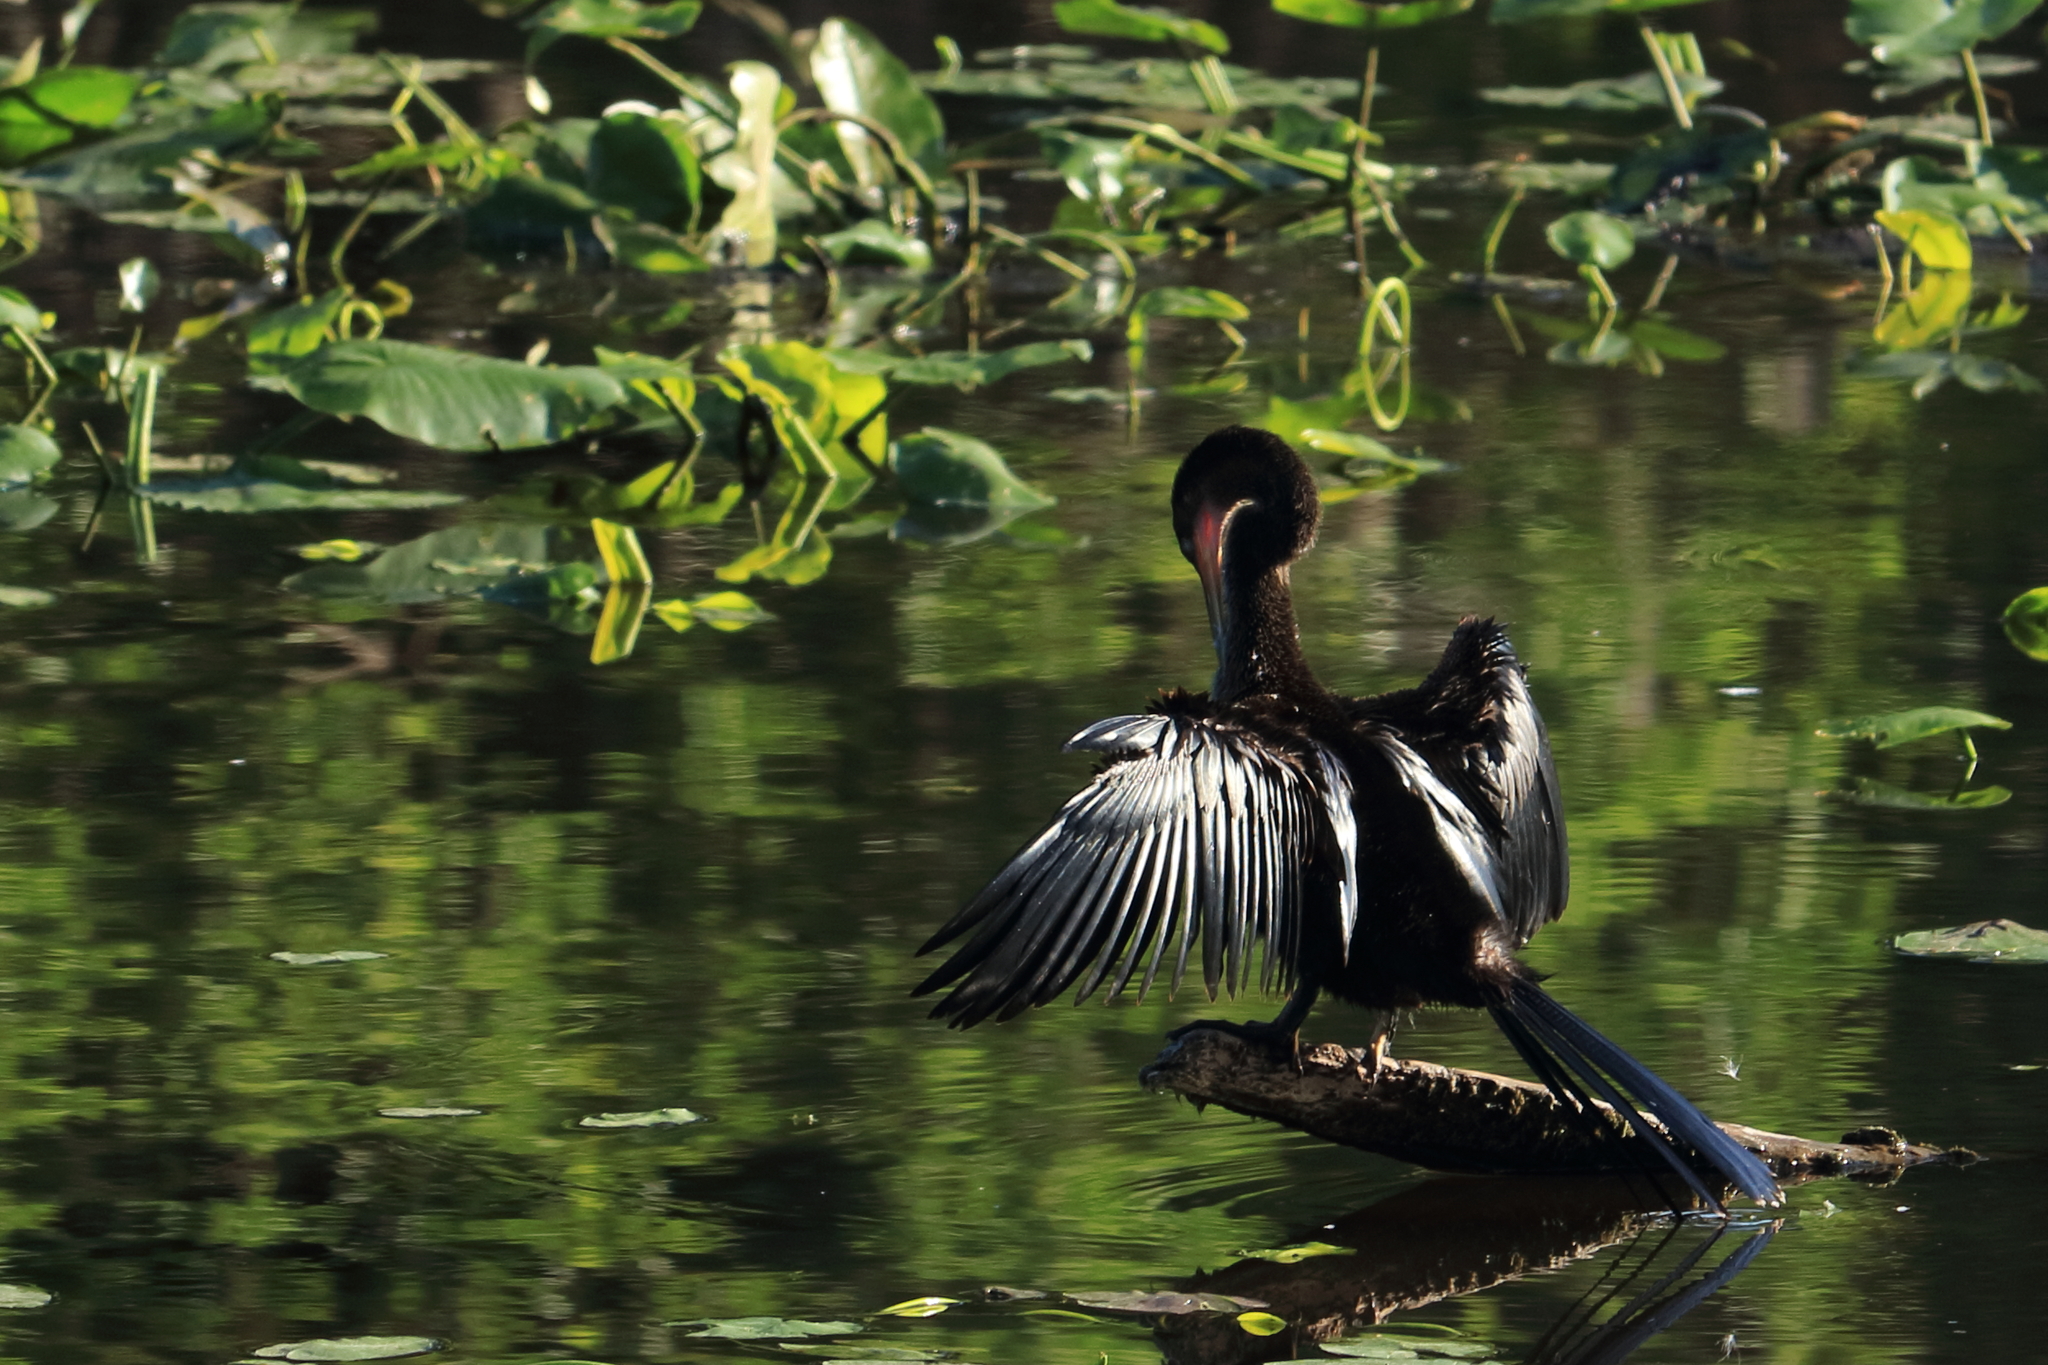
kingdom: Animalia
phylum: Chordata
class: Aves
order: Suliformes
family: Anhingidae
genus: Anhinga
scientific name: Anhinga anhinga
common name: Anhinga
